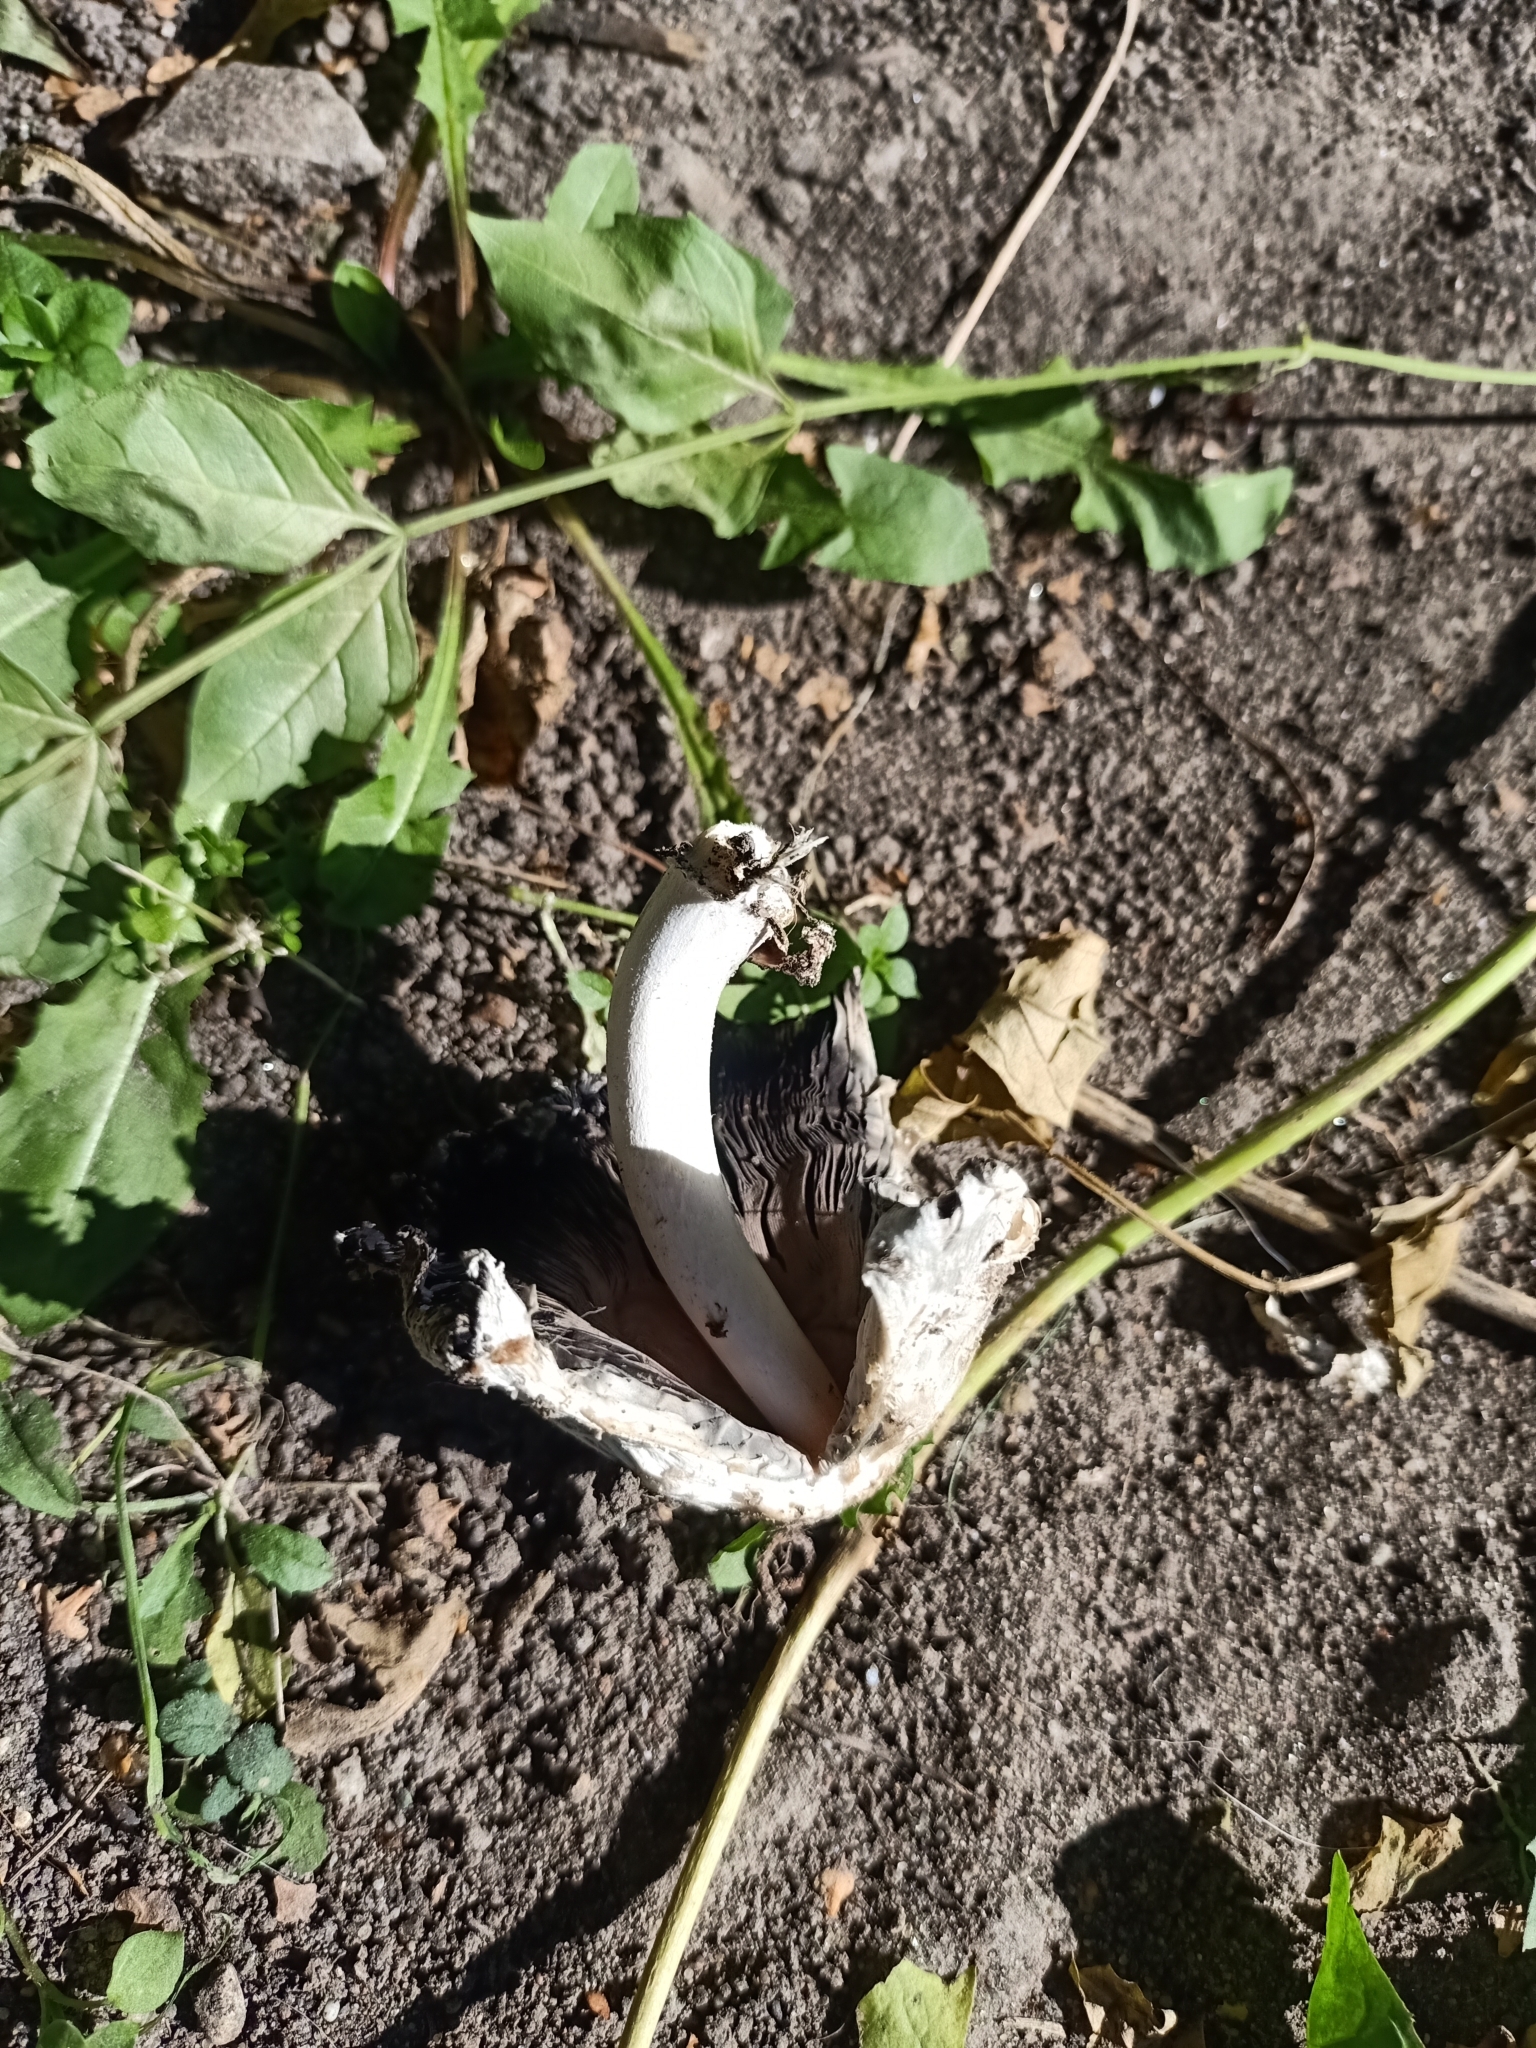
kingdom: Fungi
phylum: Basidiomycota
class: Agaricomycetes
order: Agaricales
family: Agaricaceae
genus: Coprinus
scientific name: Coprinus comatus
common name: Lawyer's wig
